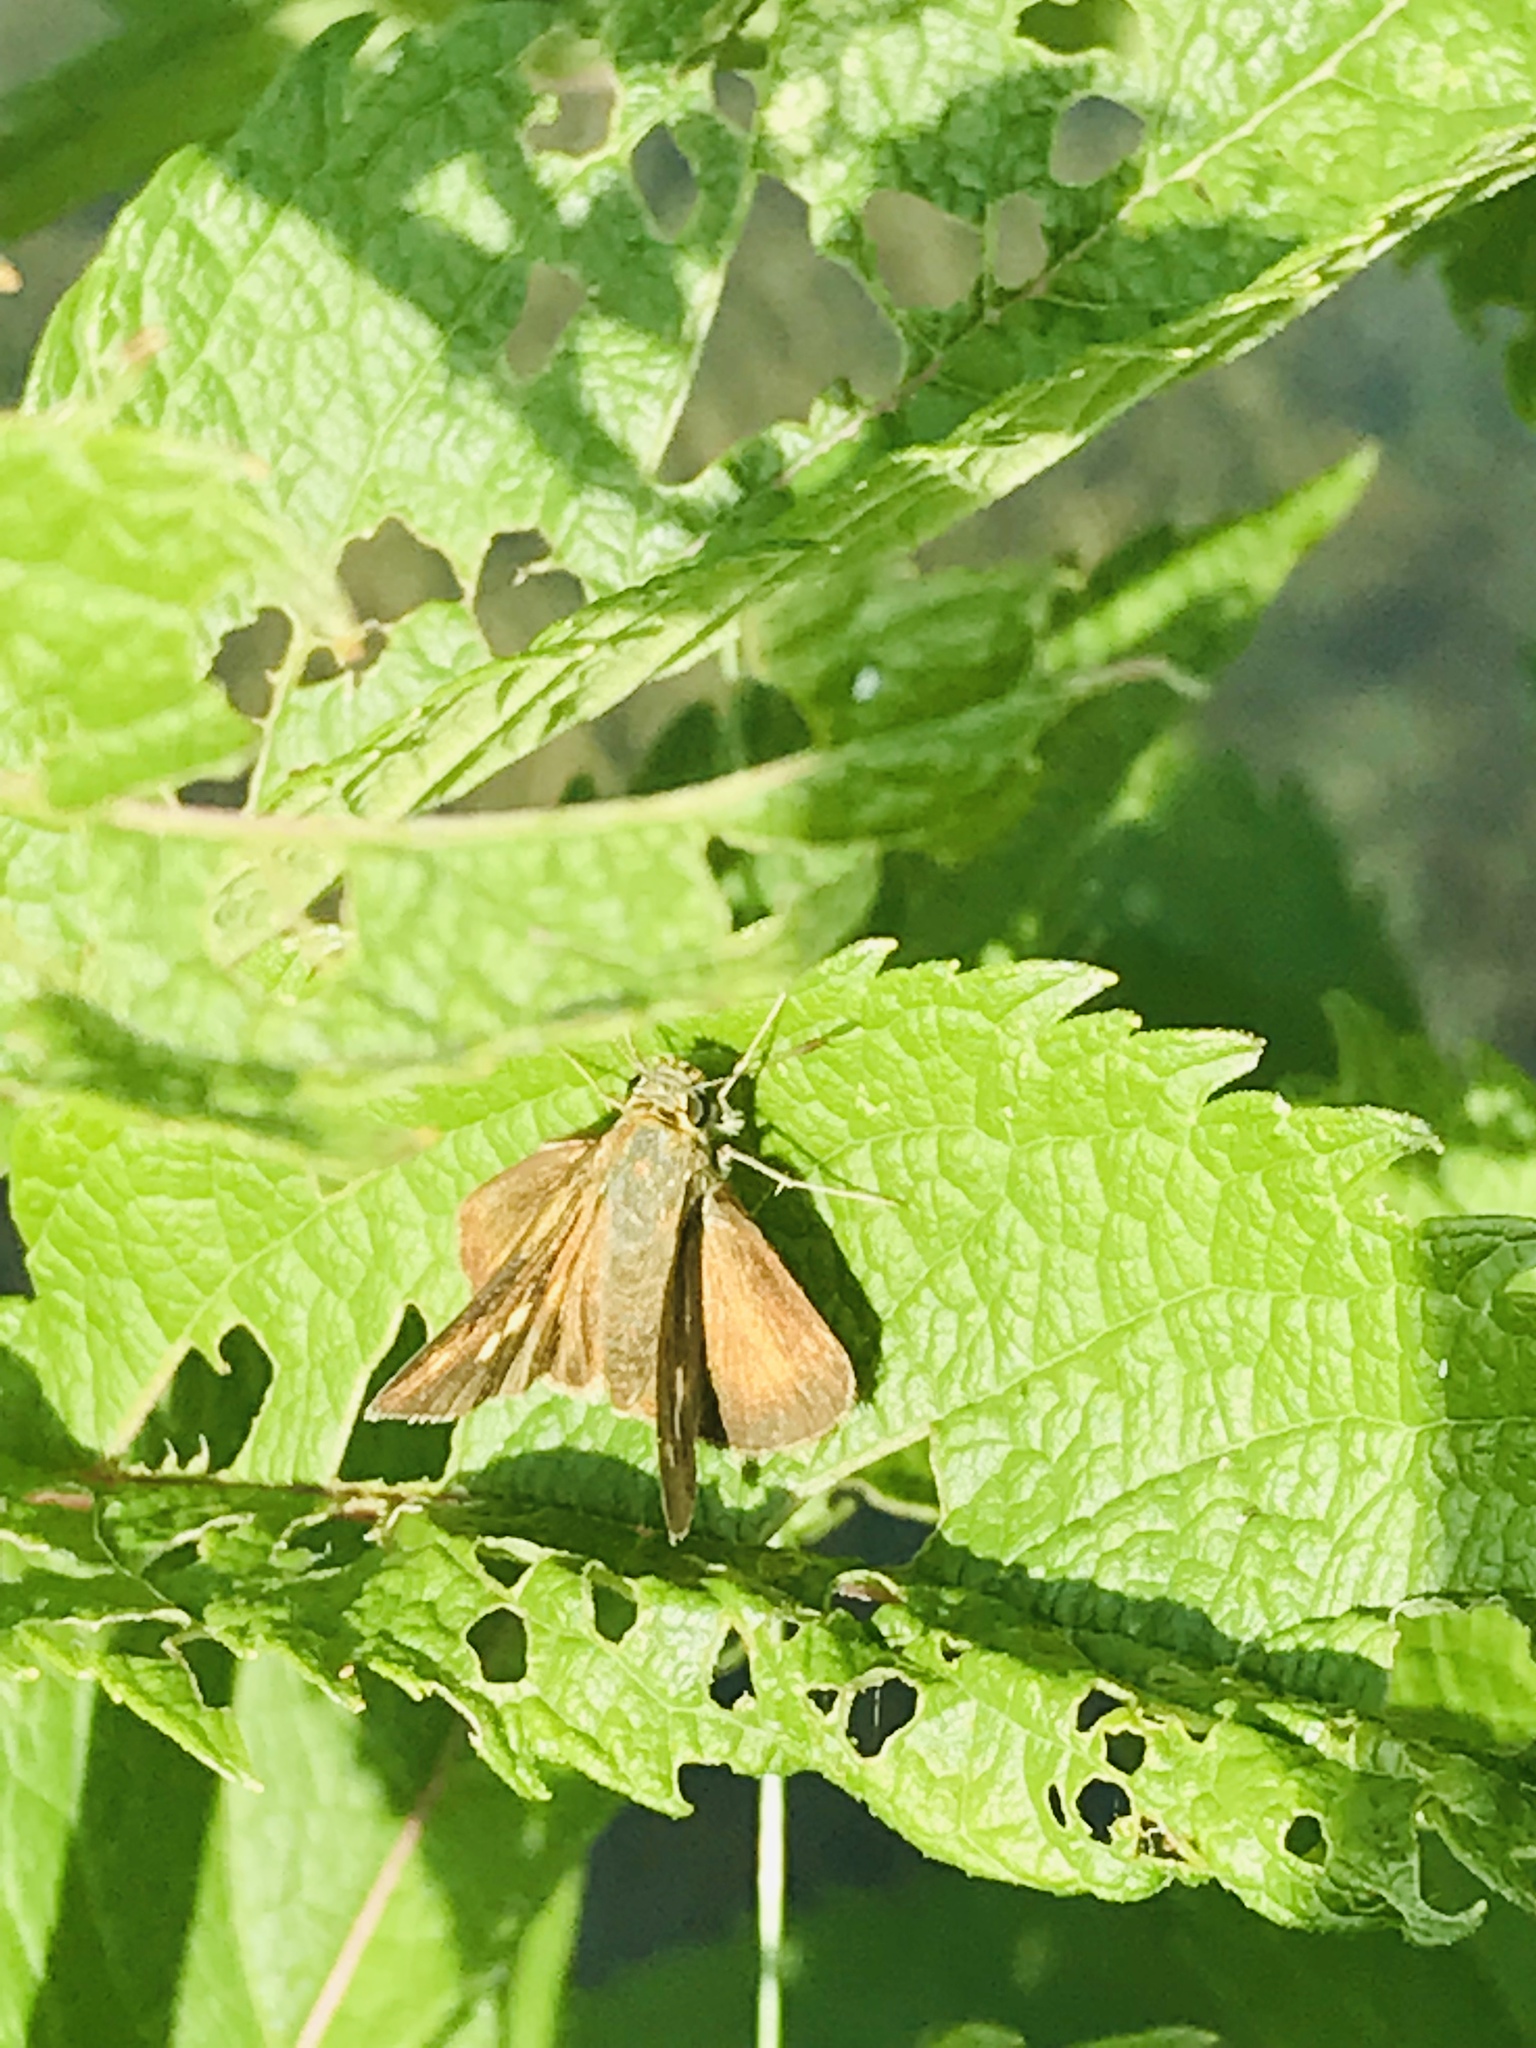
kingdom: Animalia
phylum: Arthropoda
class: Insecta
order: Lepidoptera
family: Hesperiidae
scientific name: Hesperiidae
